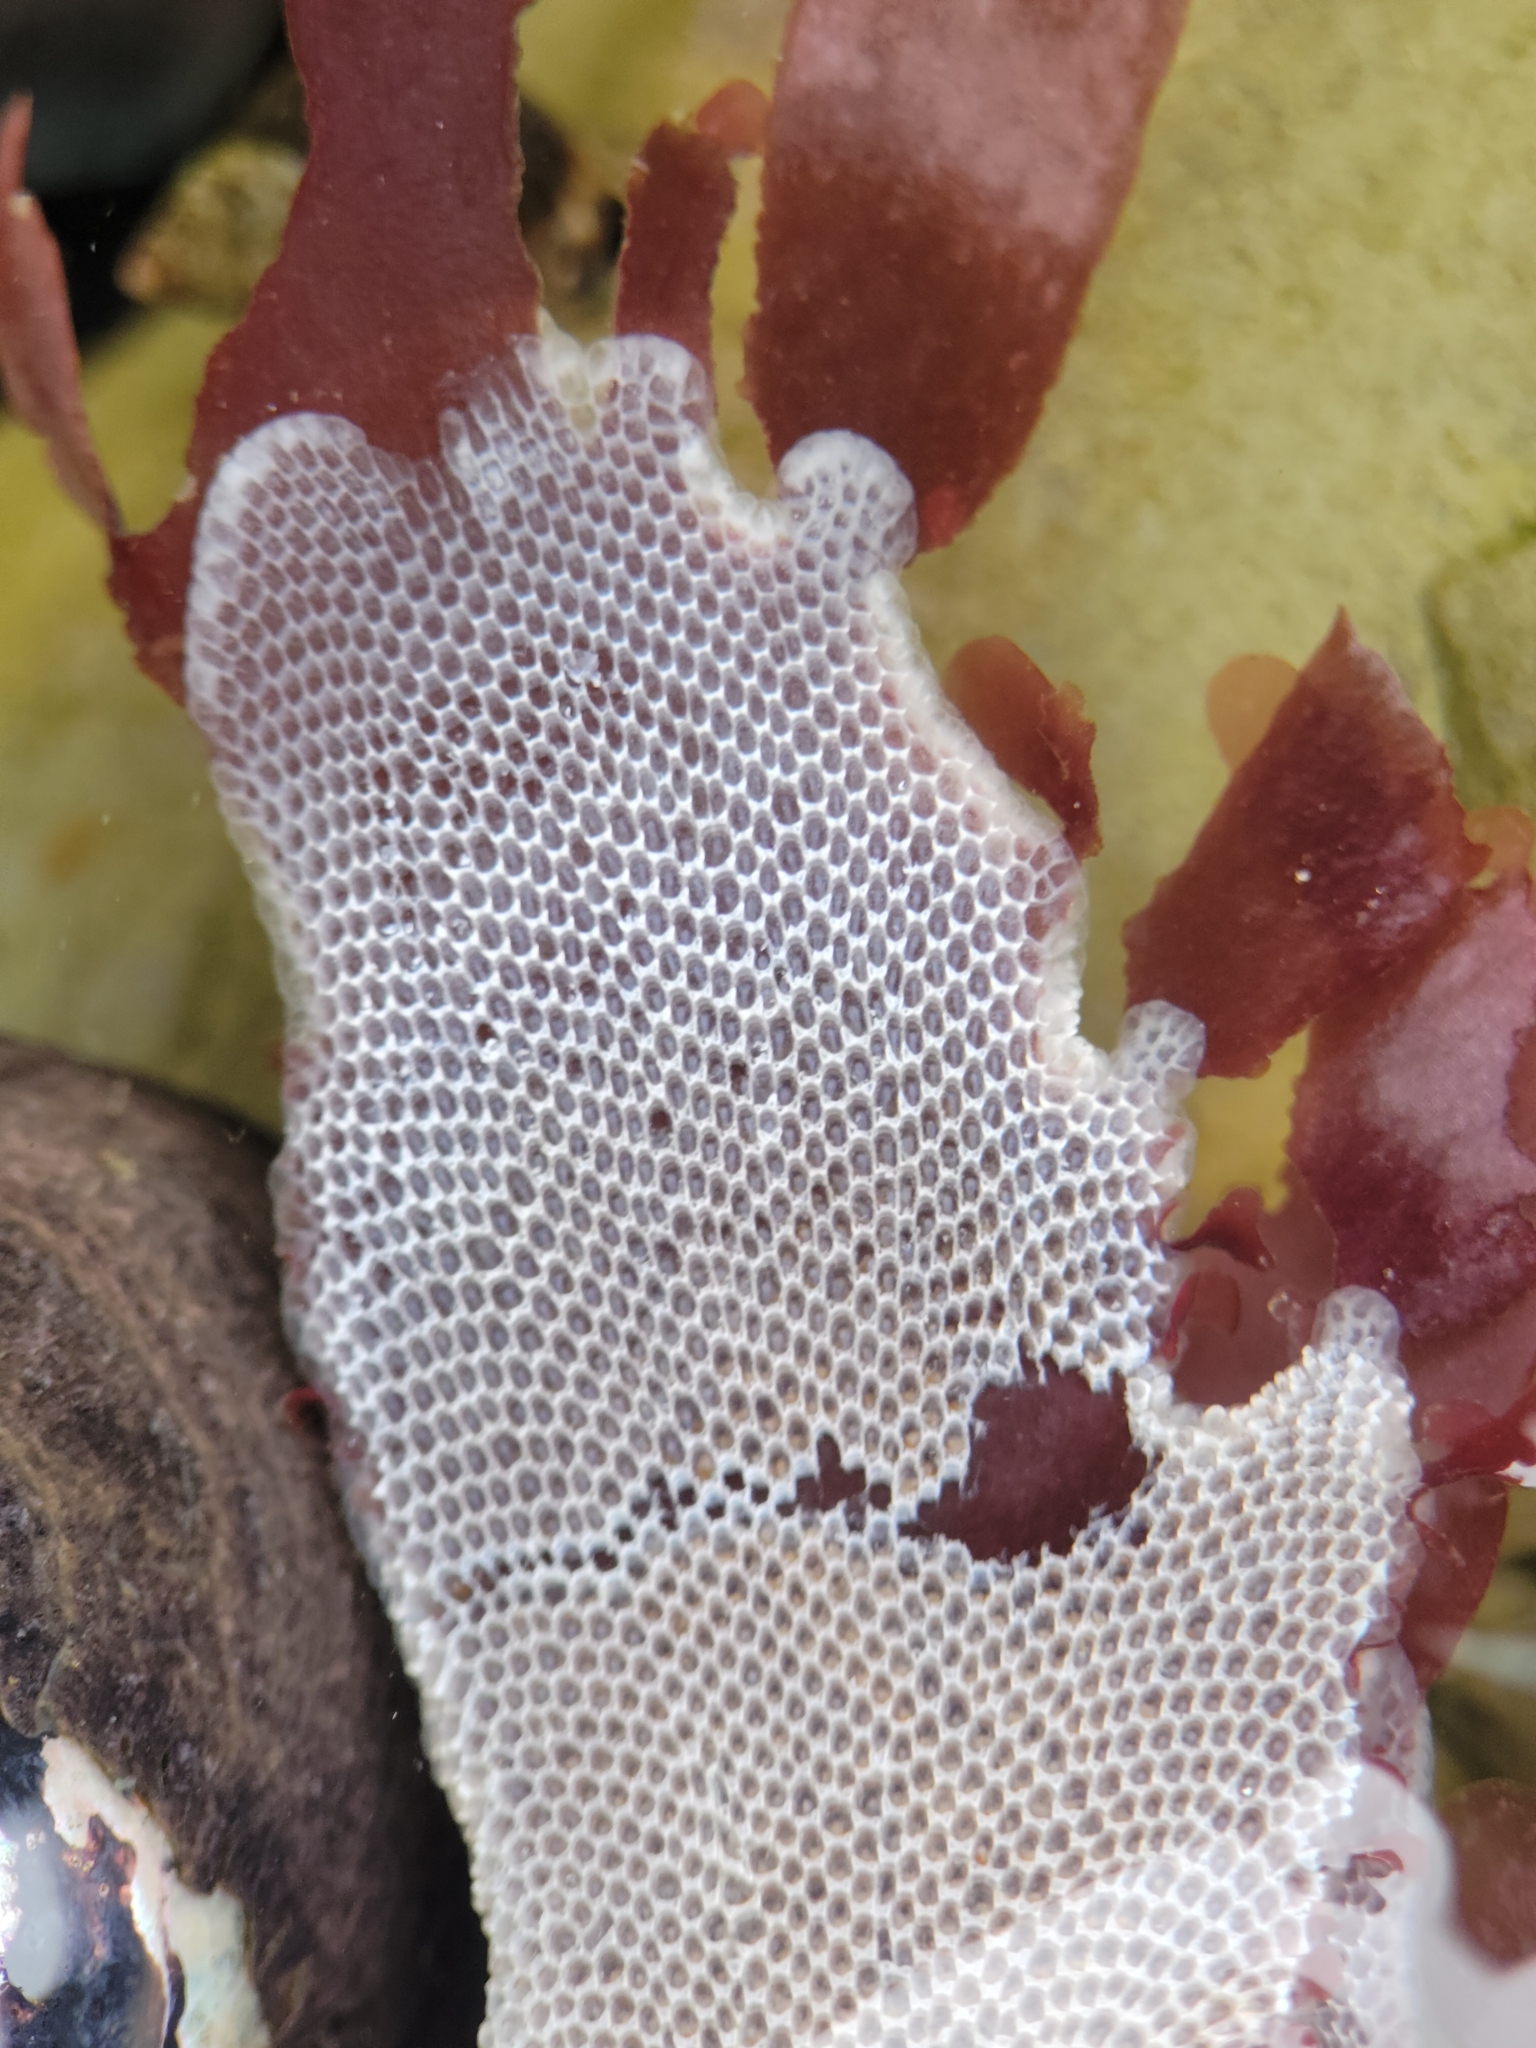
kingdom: Animalia
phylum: Bryozoa
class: Gymnolaemata
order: Cheilostomatida
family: Membraniporidae
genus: Jellyella
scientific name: Jellyella tuberculata
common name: Sargassum bryozoan
